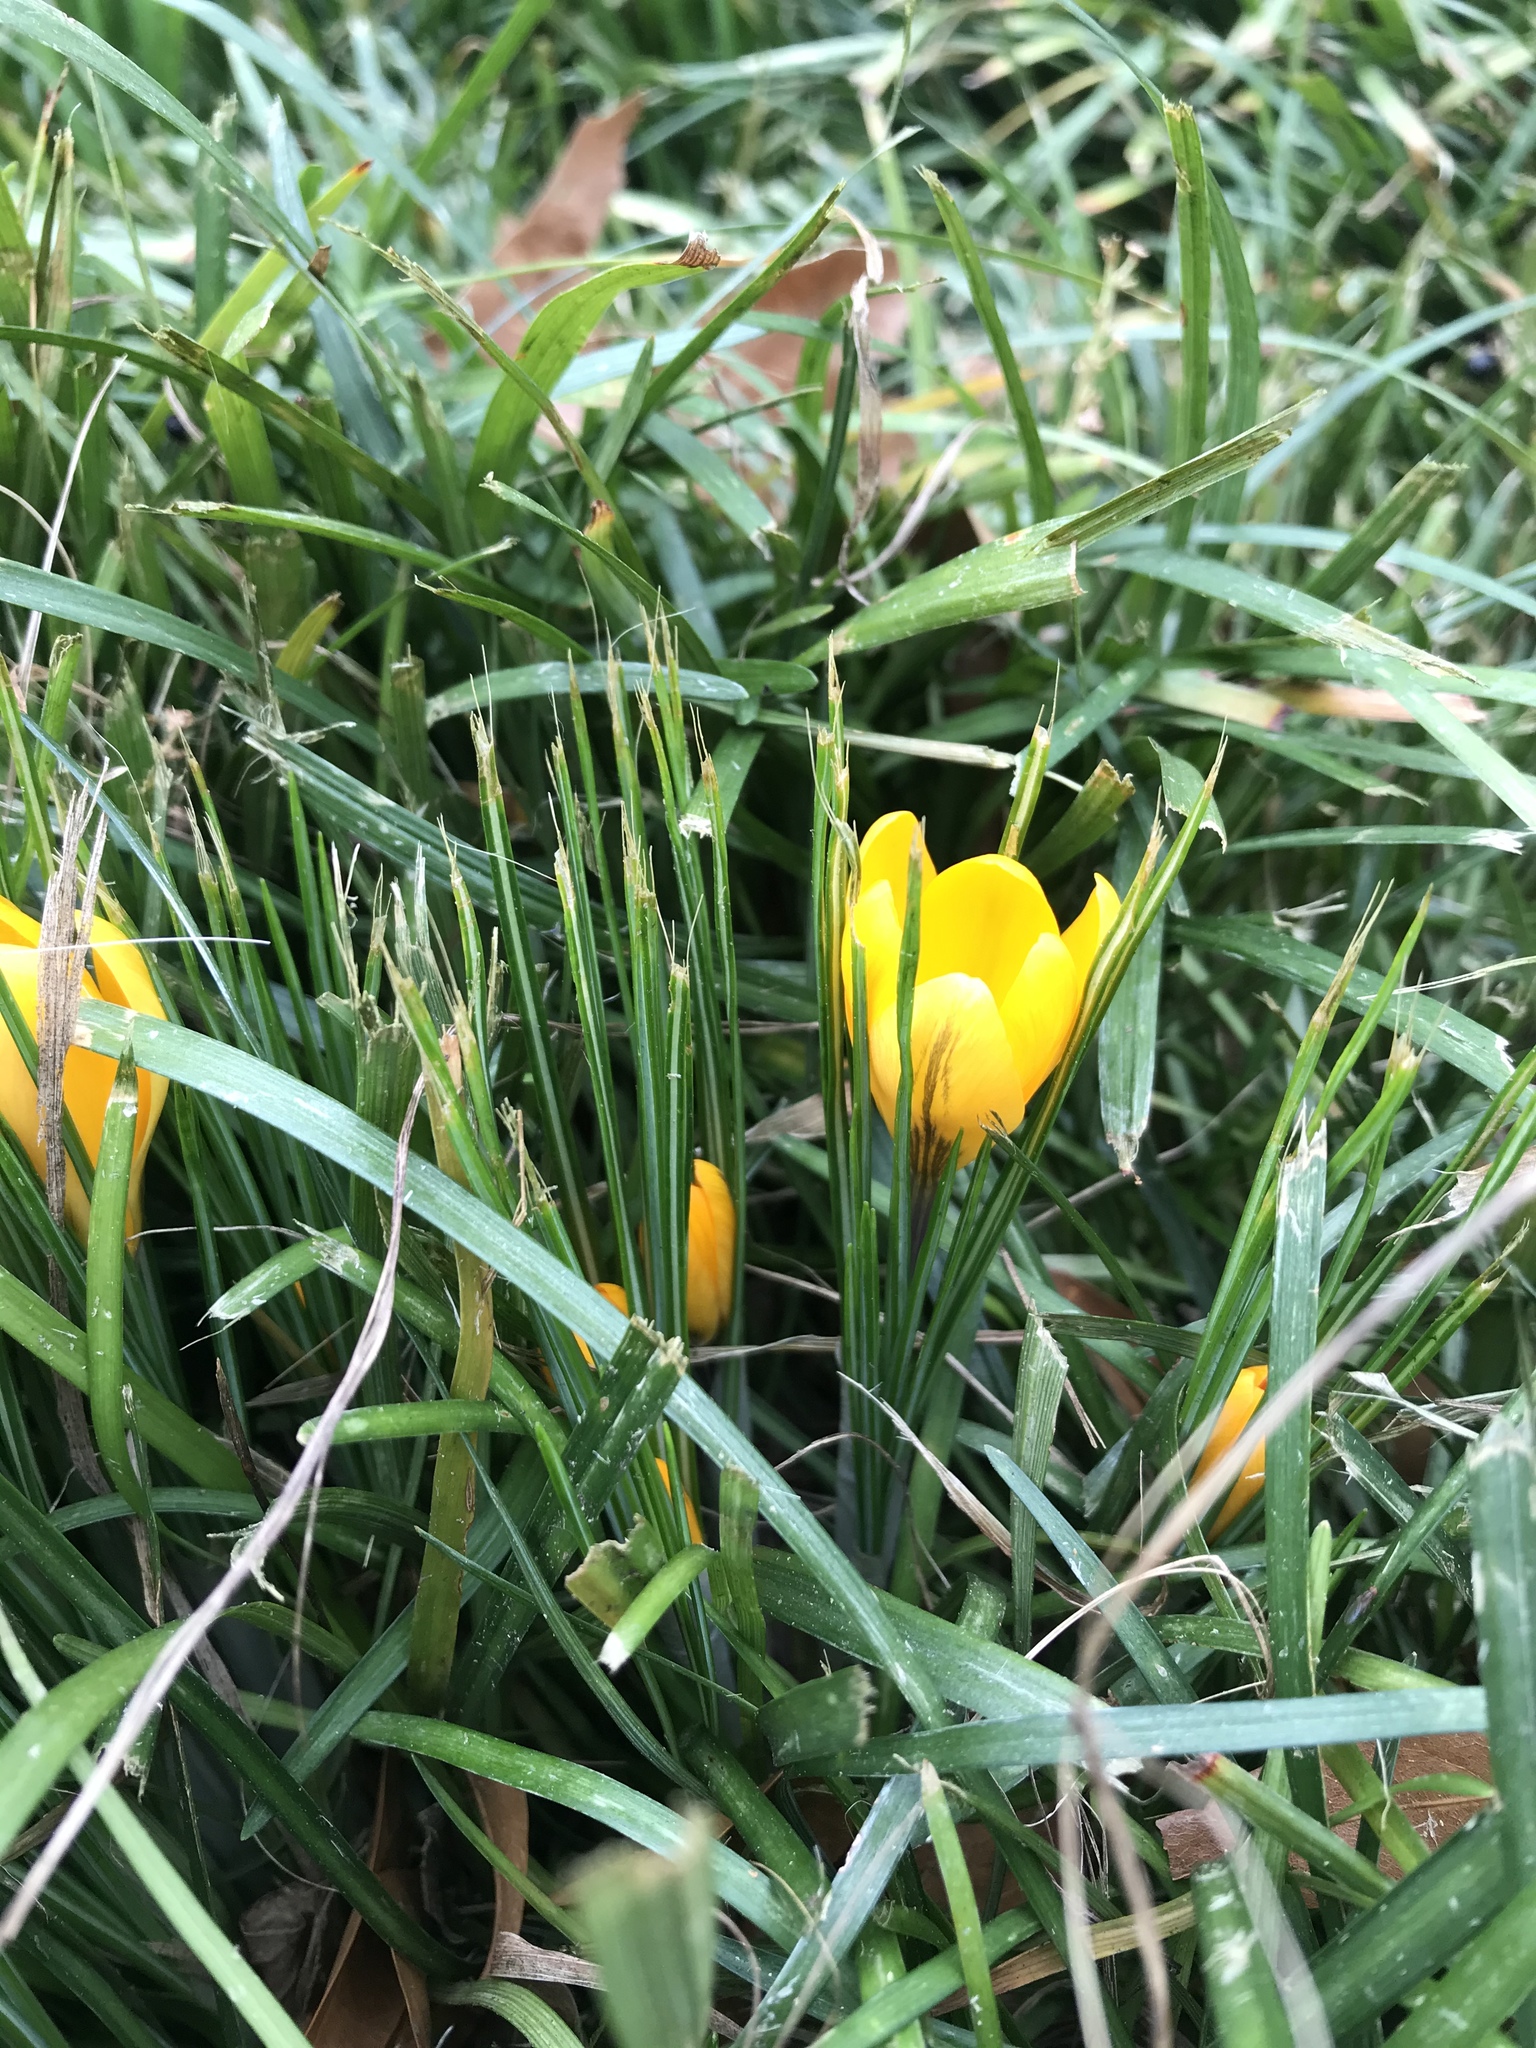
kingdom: Plantae
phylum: Tracheophyta
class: Liliopsida
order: Asparagales
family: Iridaceae
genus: Crocus
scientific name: Crocus luteus
